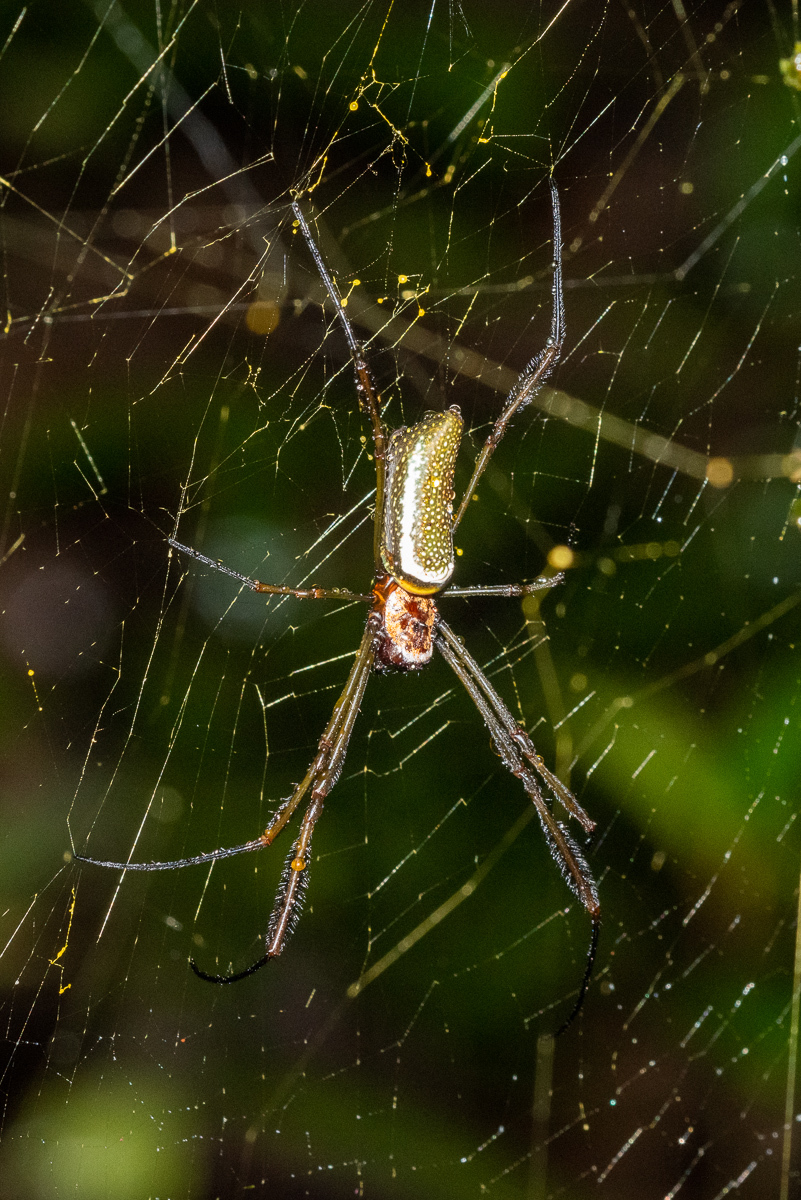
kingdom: Animalia
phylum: Arthropoda
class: Arachnida
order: Araneae
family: Araneidae
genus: Trichonephila
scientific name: Trichonephila clavipes
